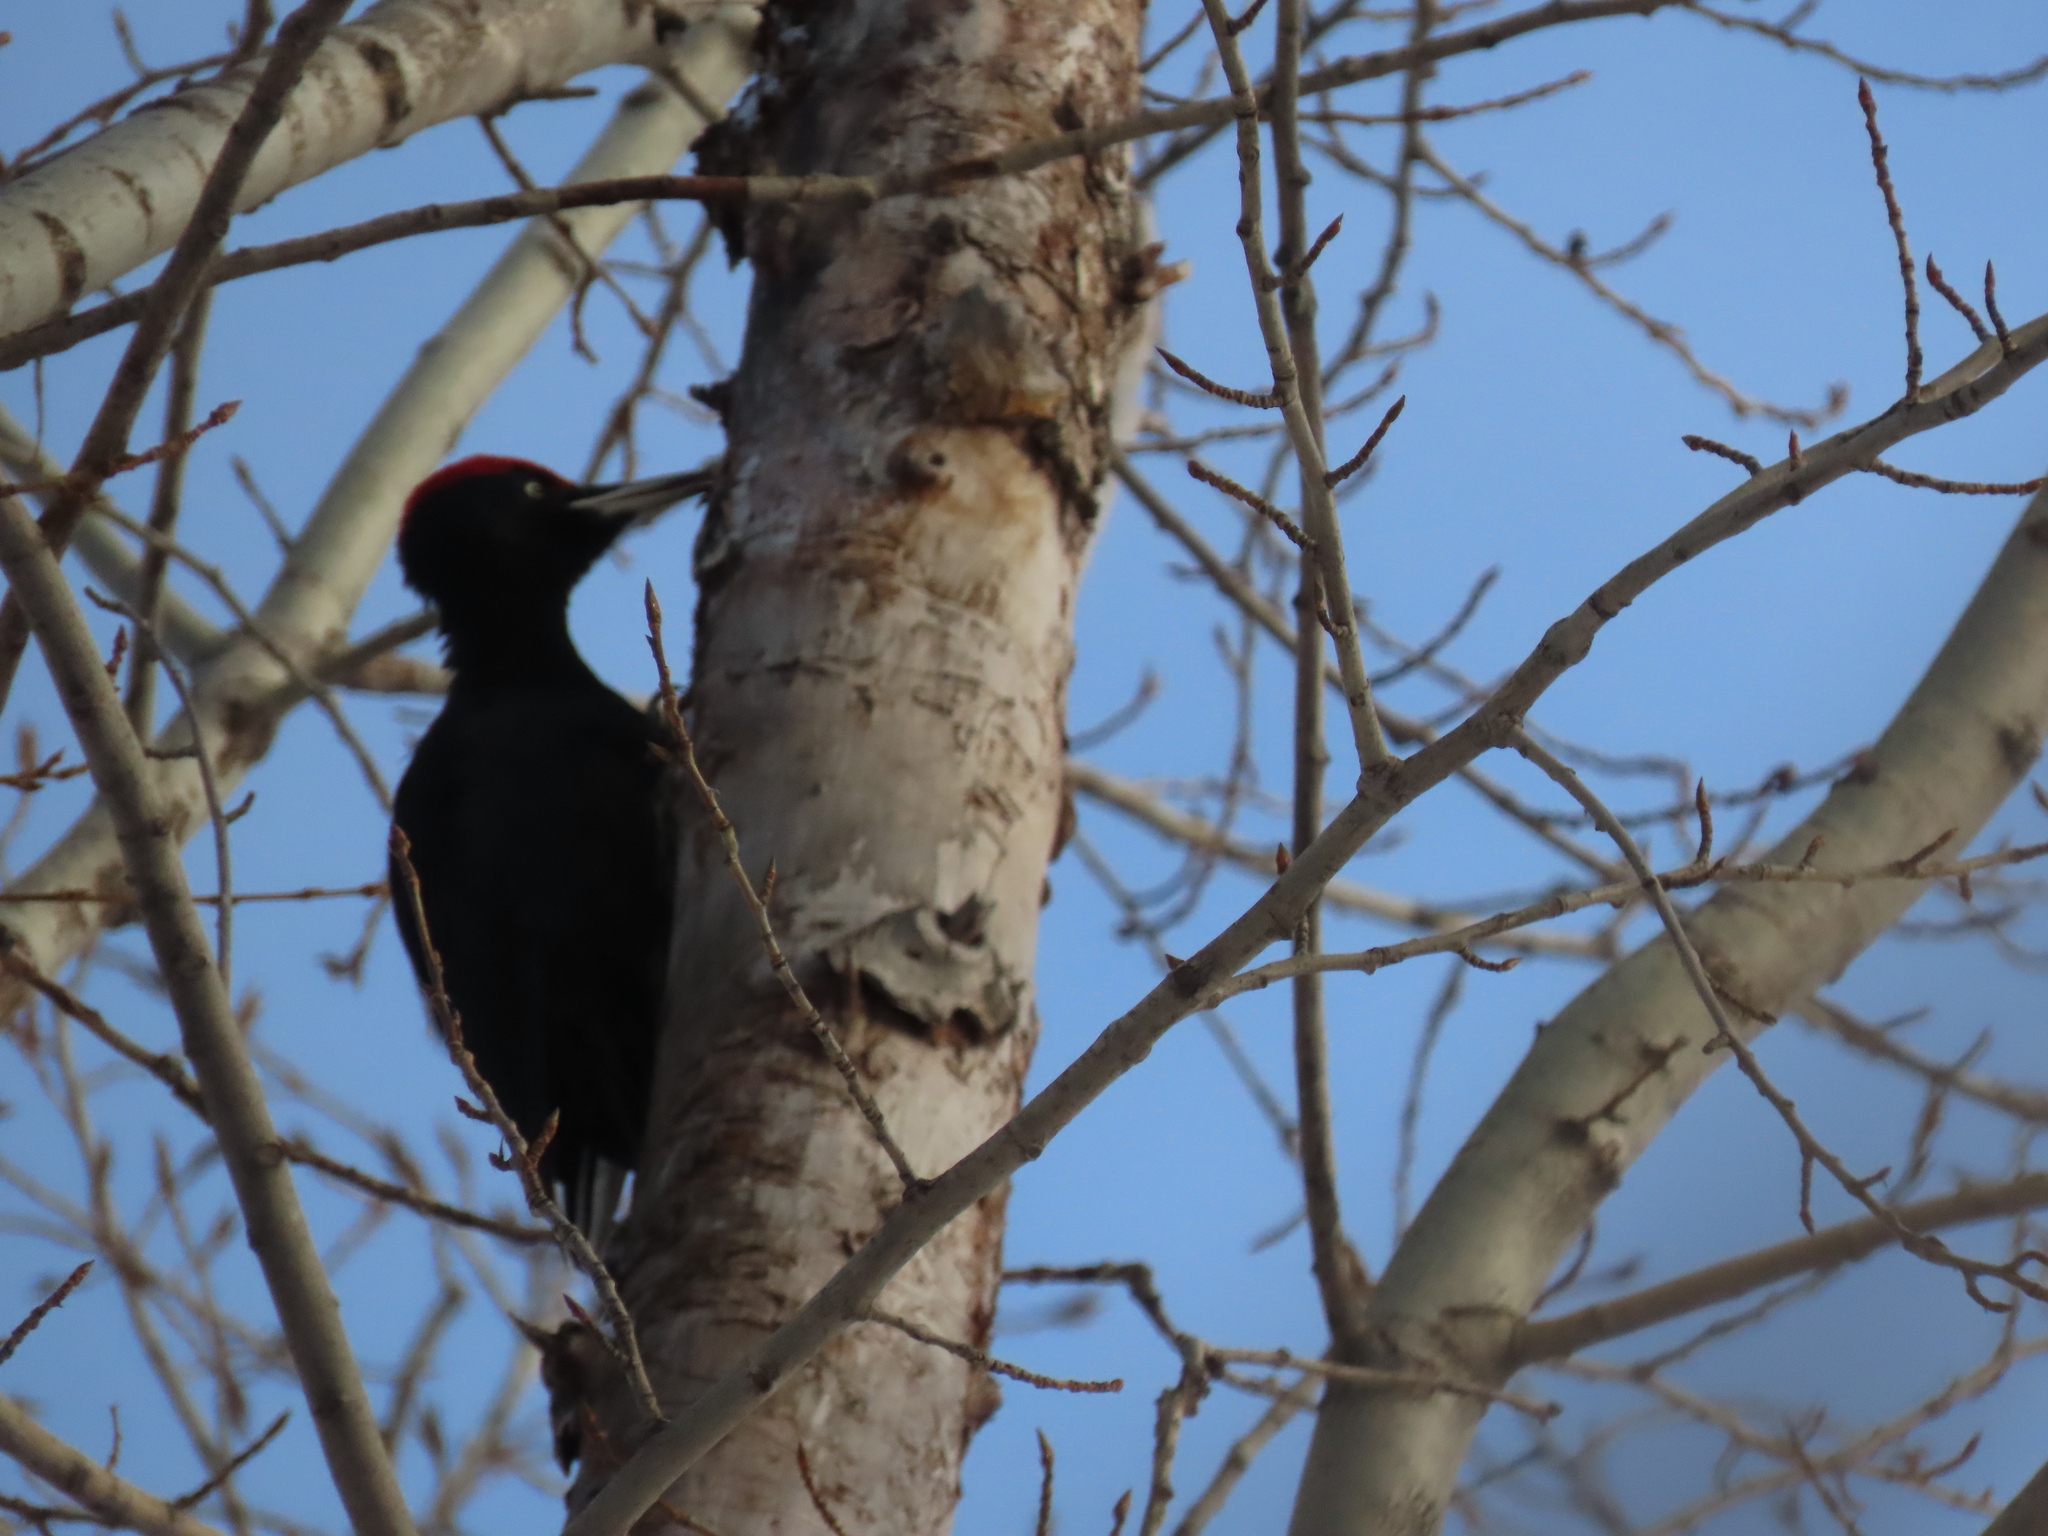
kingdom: Animalia
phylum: Chordata
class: Aves
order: Piciformes
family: Picidae
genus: Dryocopus
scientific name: Dryocopus martius
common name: Black woodpecker
